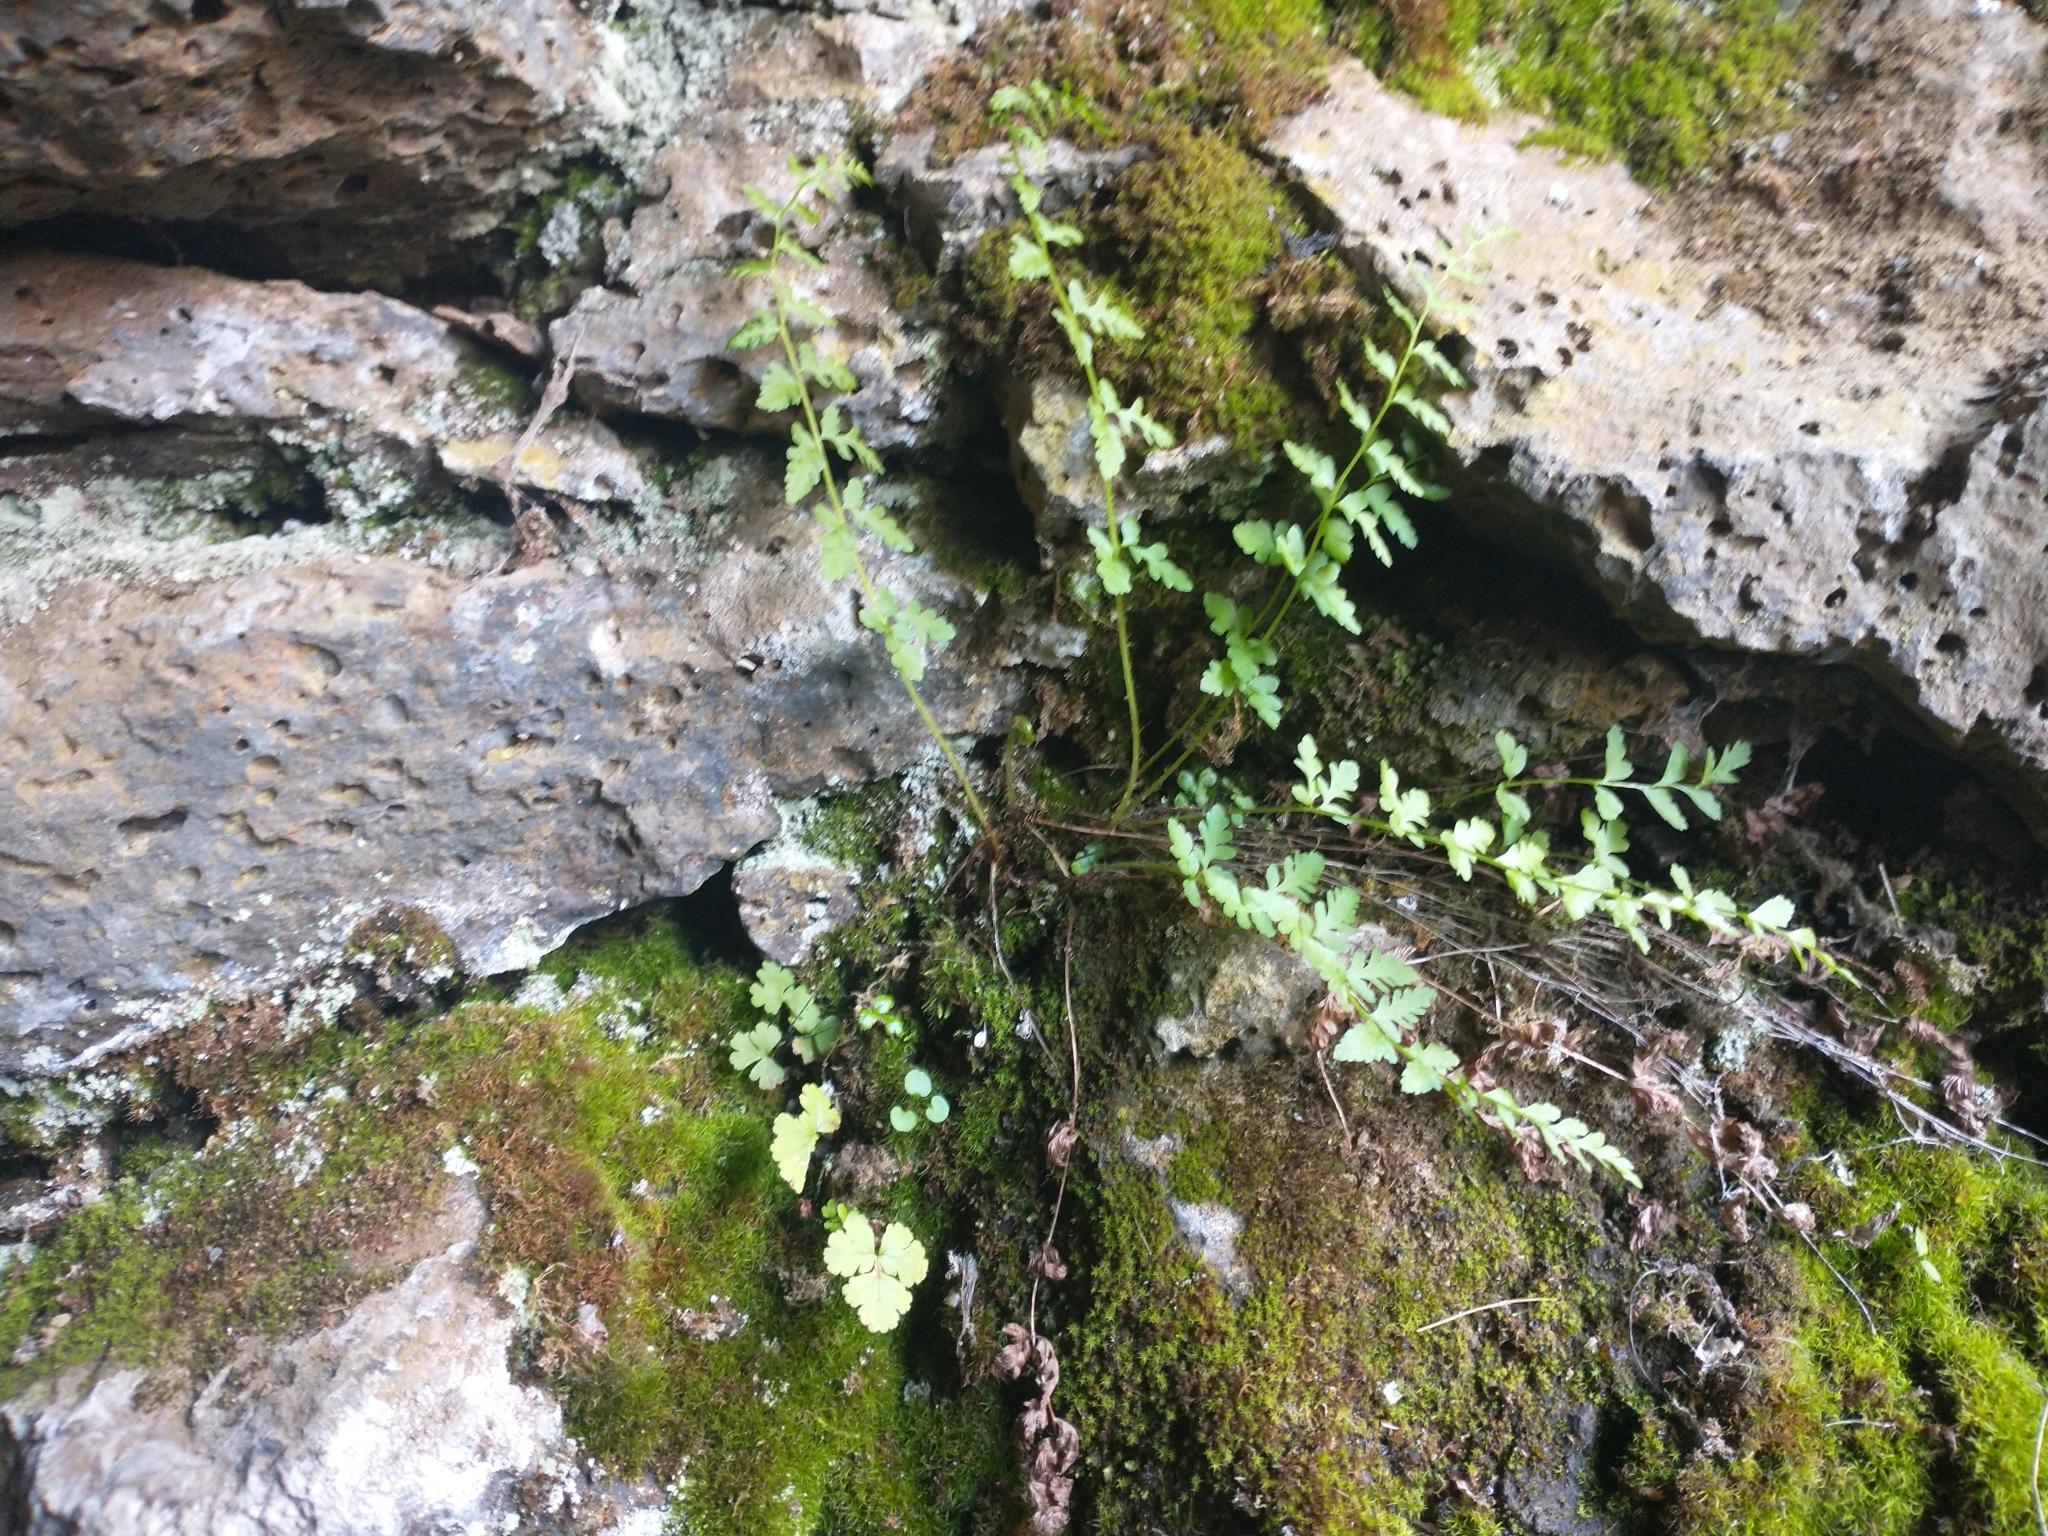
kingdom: Plantae
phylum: Tracheophyta
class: Polypodiopsida
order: Polypodiales
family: Cystopteridaceae
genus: Cystopteris
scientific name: Cystopteris fragilis
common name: Brittle bladder fern
